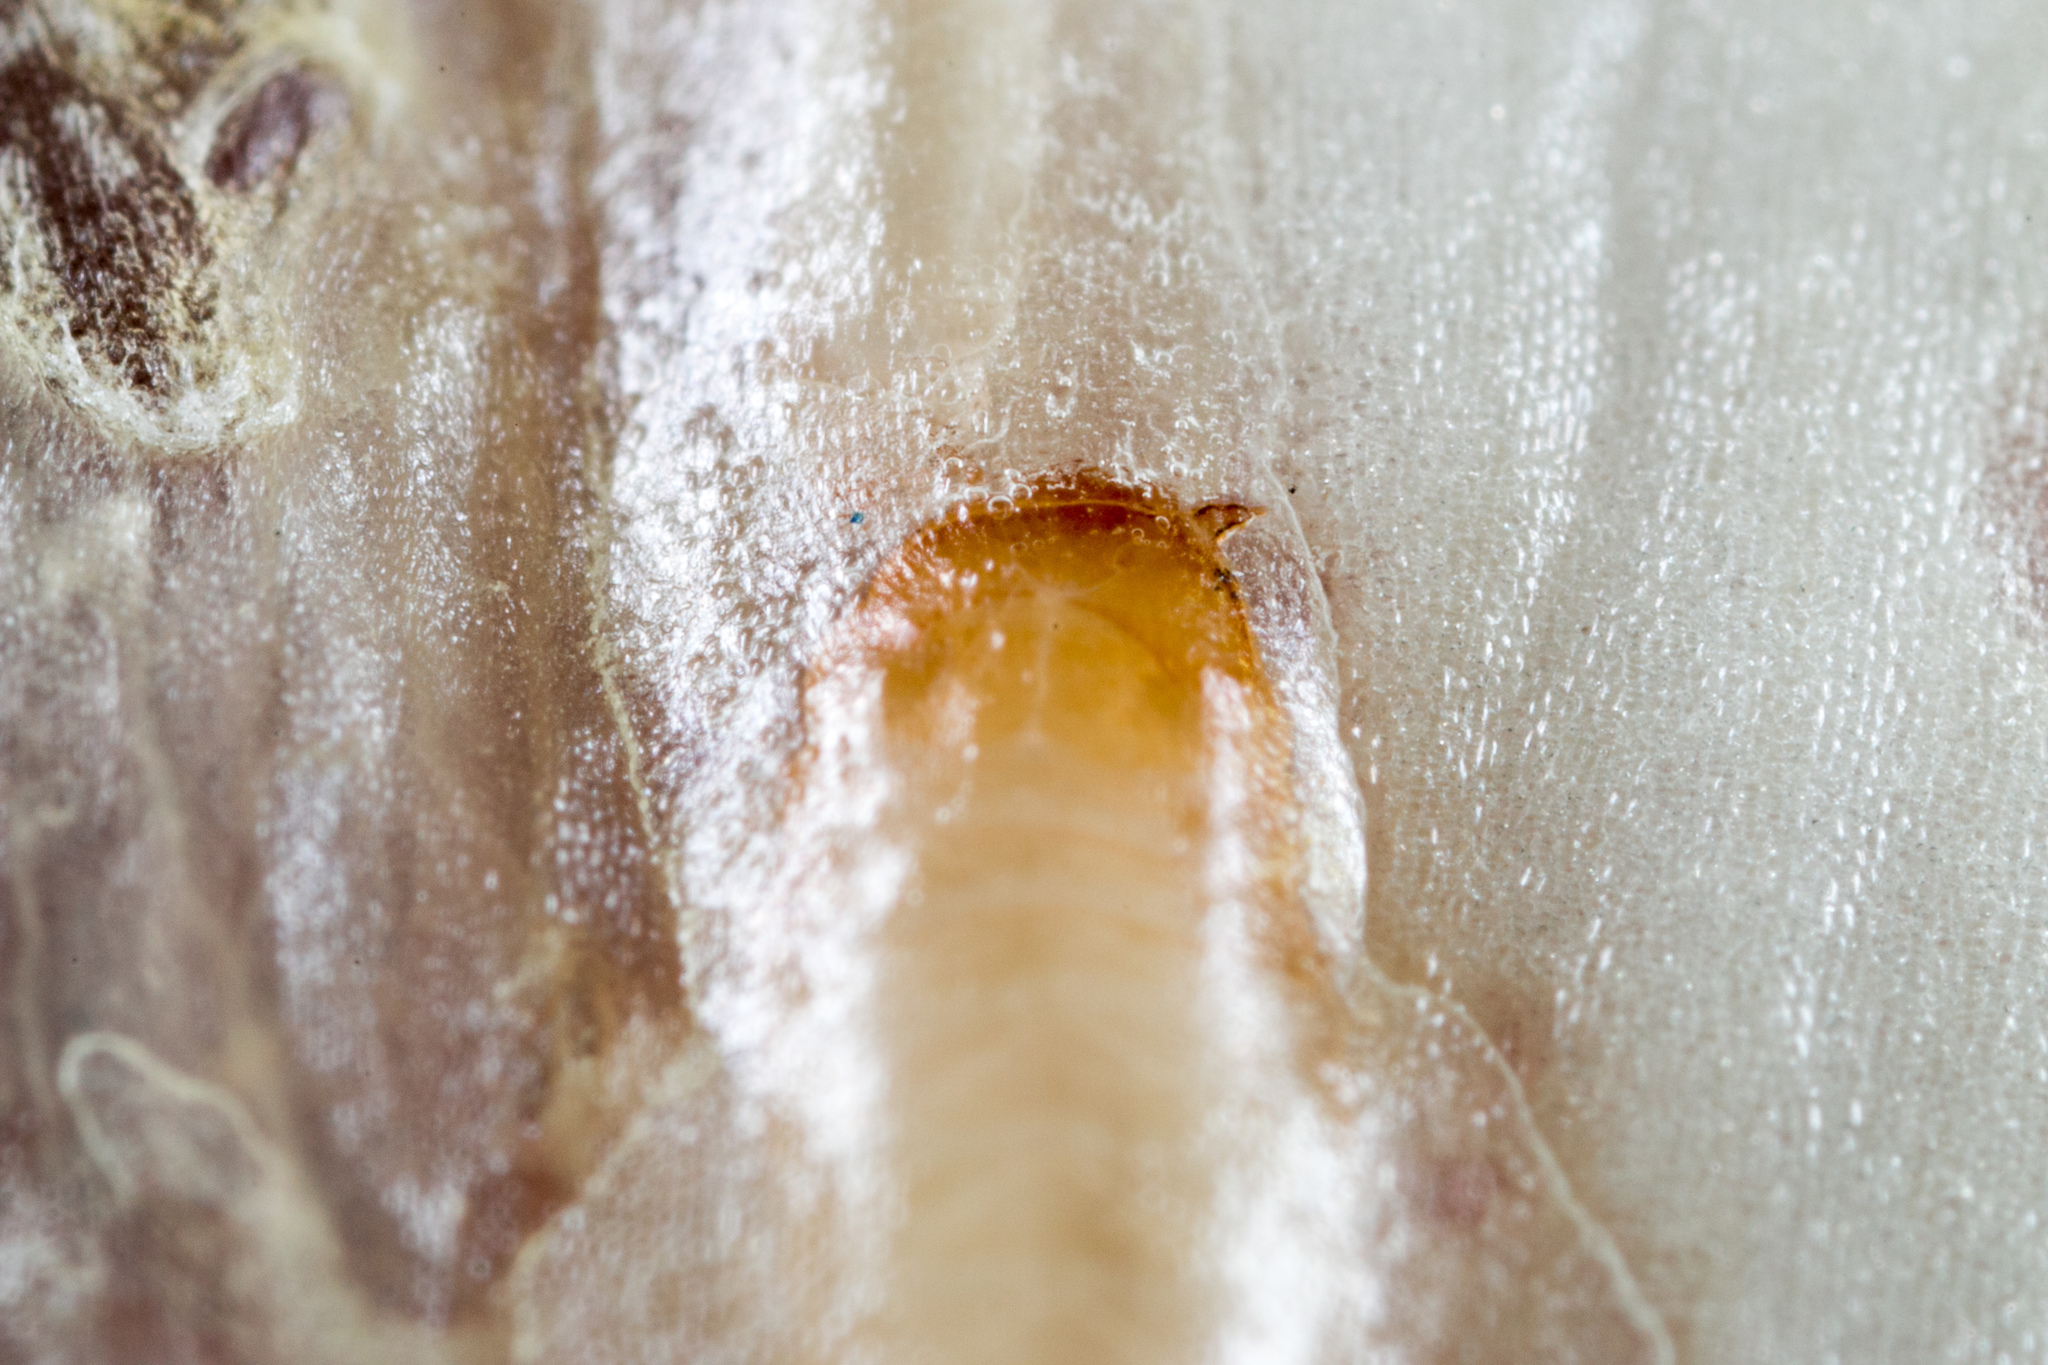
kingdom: Animalia
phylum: Arthropoda
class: Insecta
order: Coleoptera
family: Nitidulidae
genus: Carpophilus
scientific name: Carpophilus
